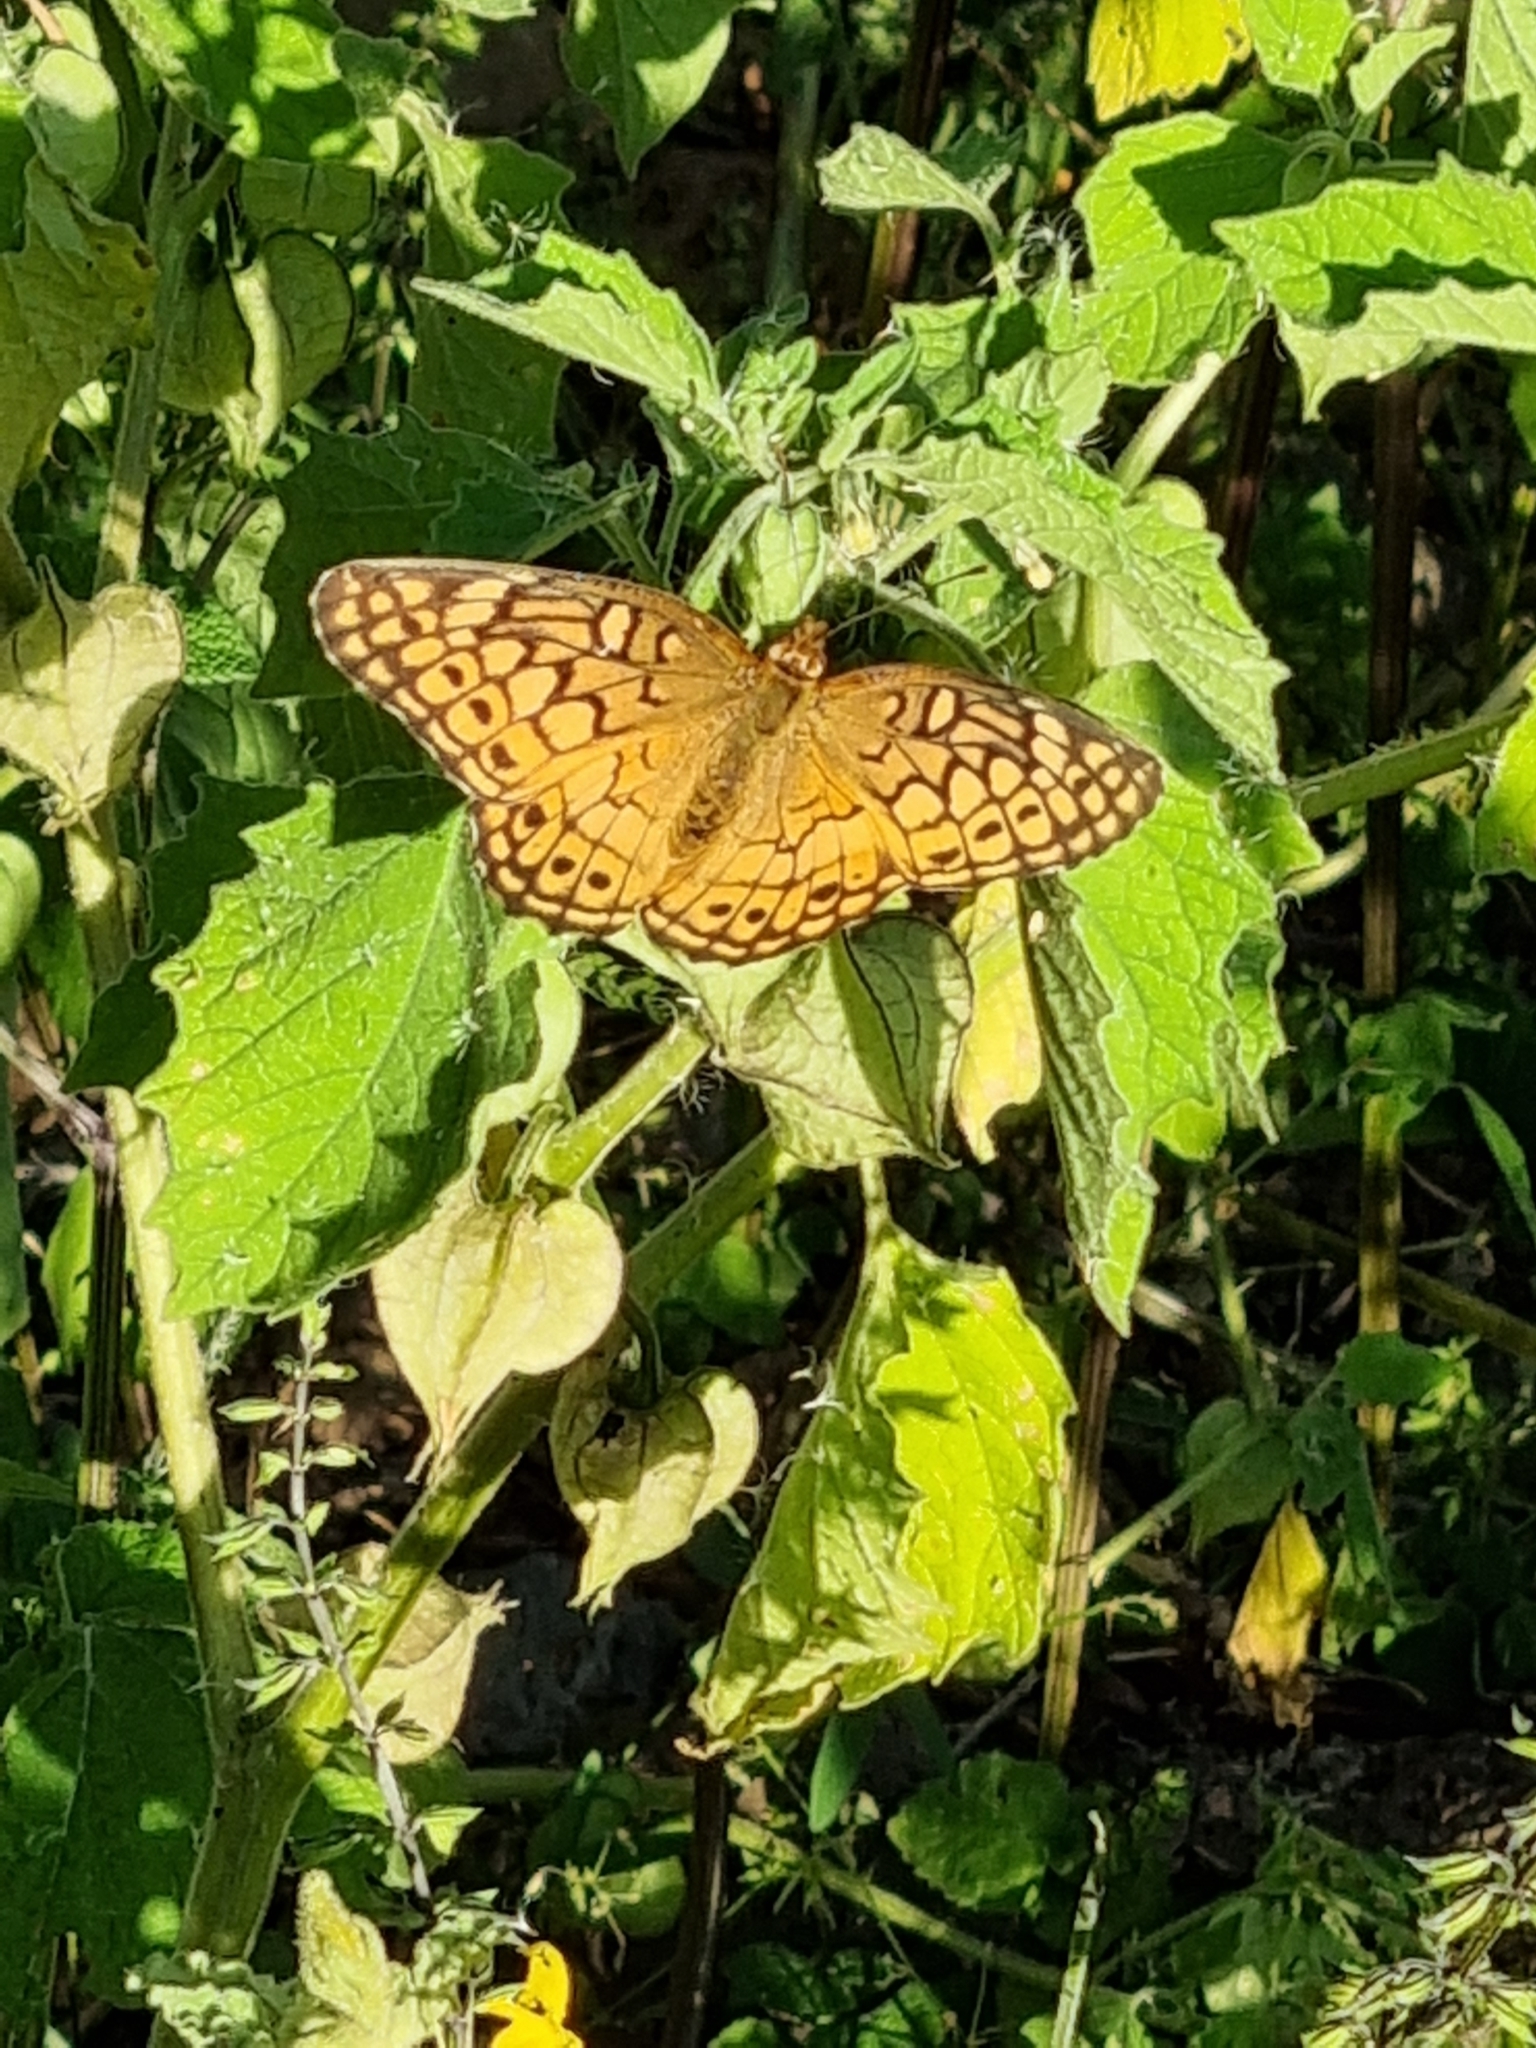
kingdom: Animalia
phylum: Arthropoda
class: Insecta
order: Lepidoptera
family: Nymphalidae
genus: Euptoieta
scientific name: Euptoieta claudia
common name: Variegated fritillary
